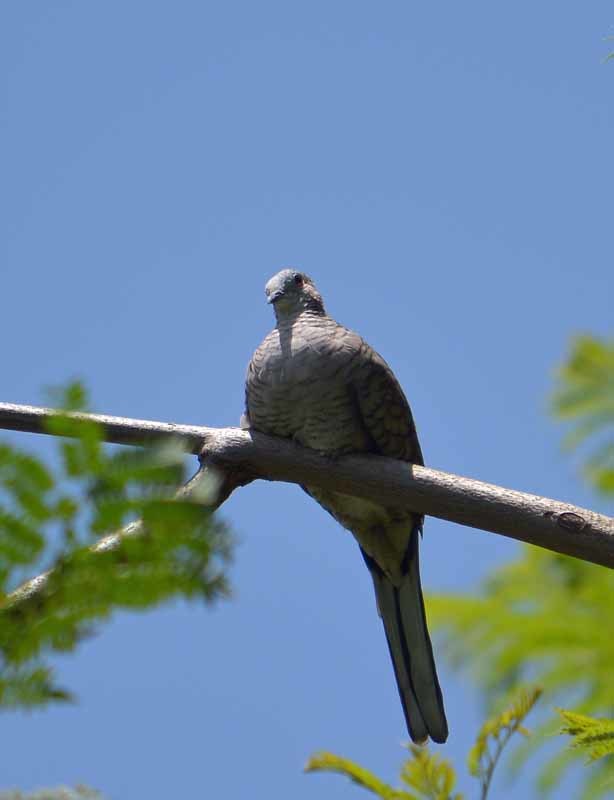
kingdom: Animalia
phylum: Chordata
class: Aves
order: Columbiformes
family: Columbidae
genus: Columbina
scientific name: Columbina inca
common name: Inca dove
